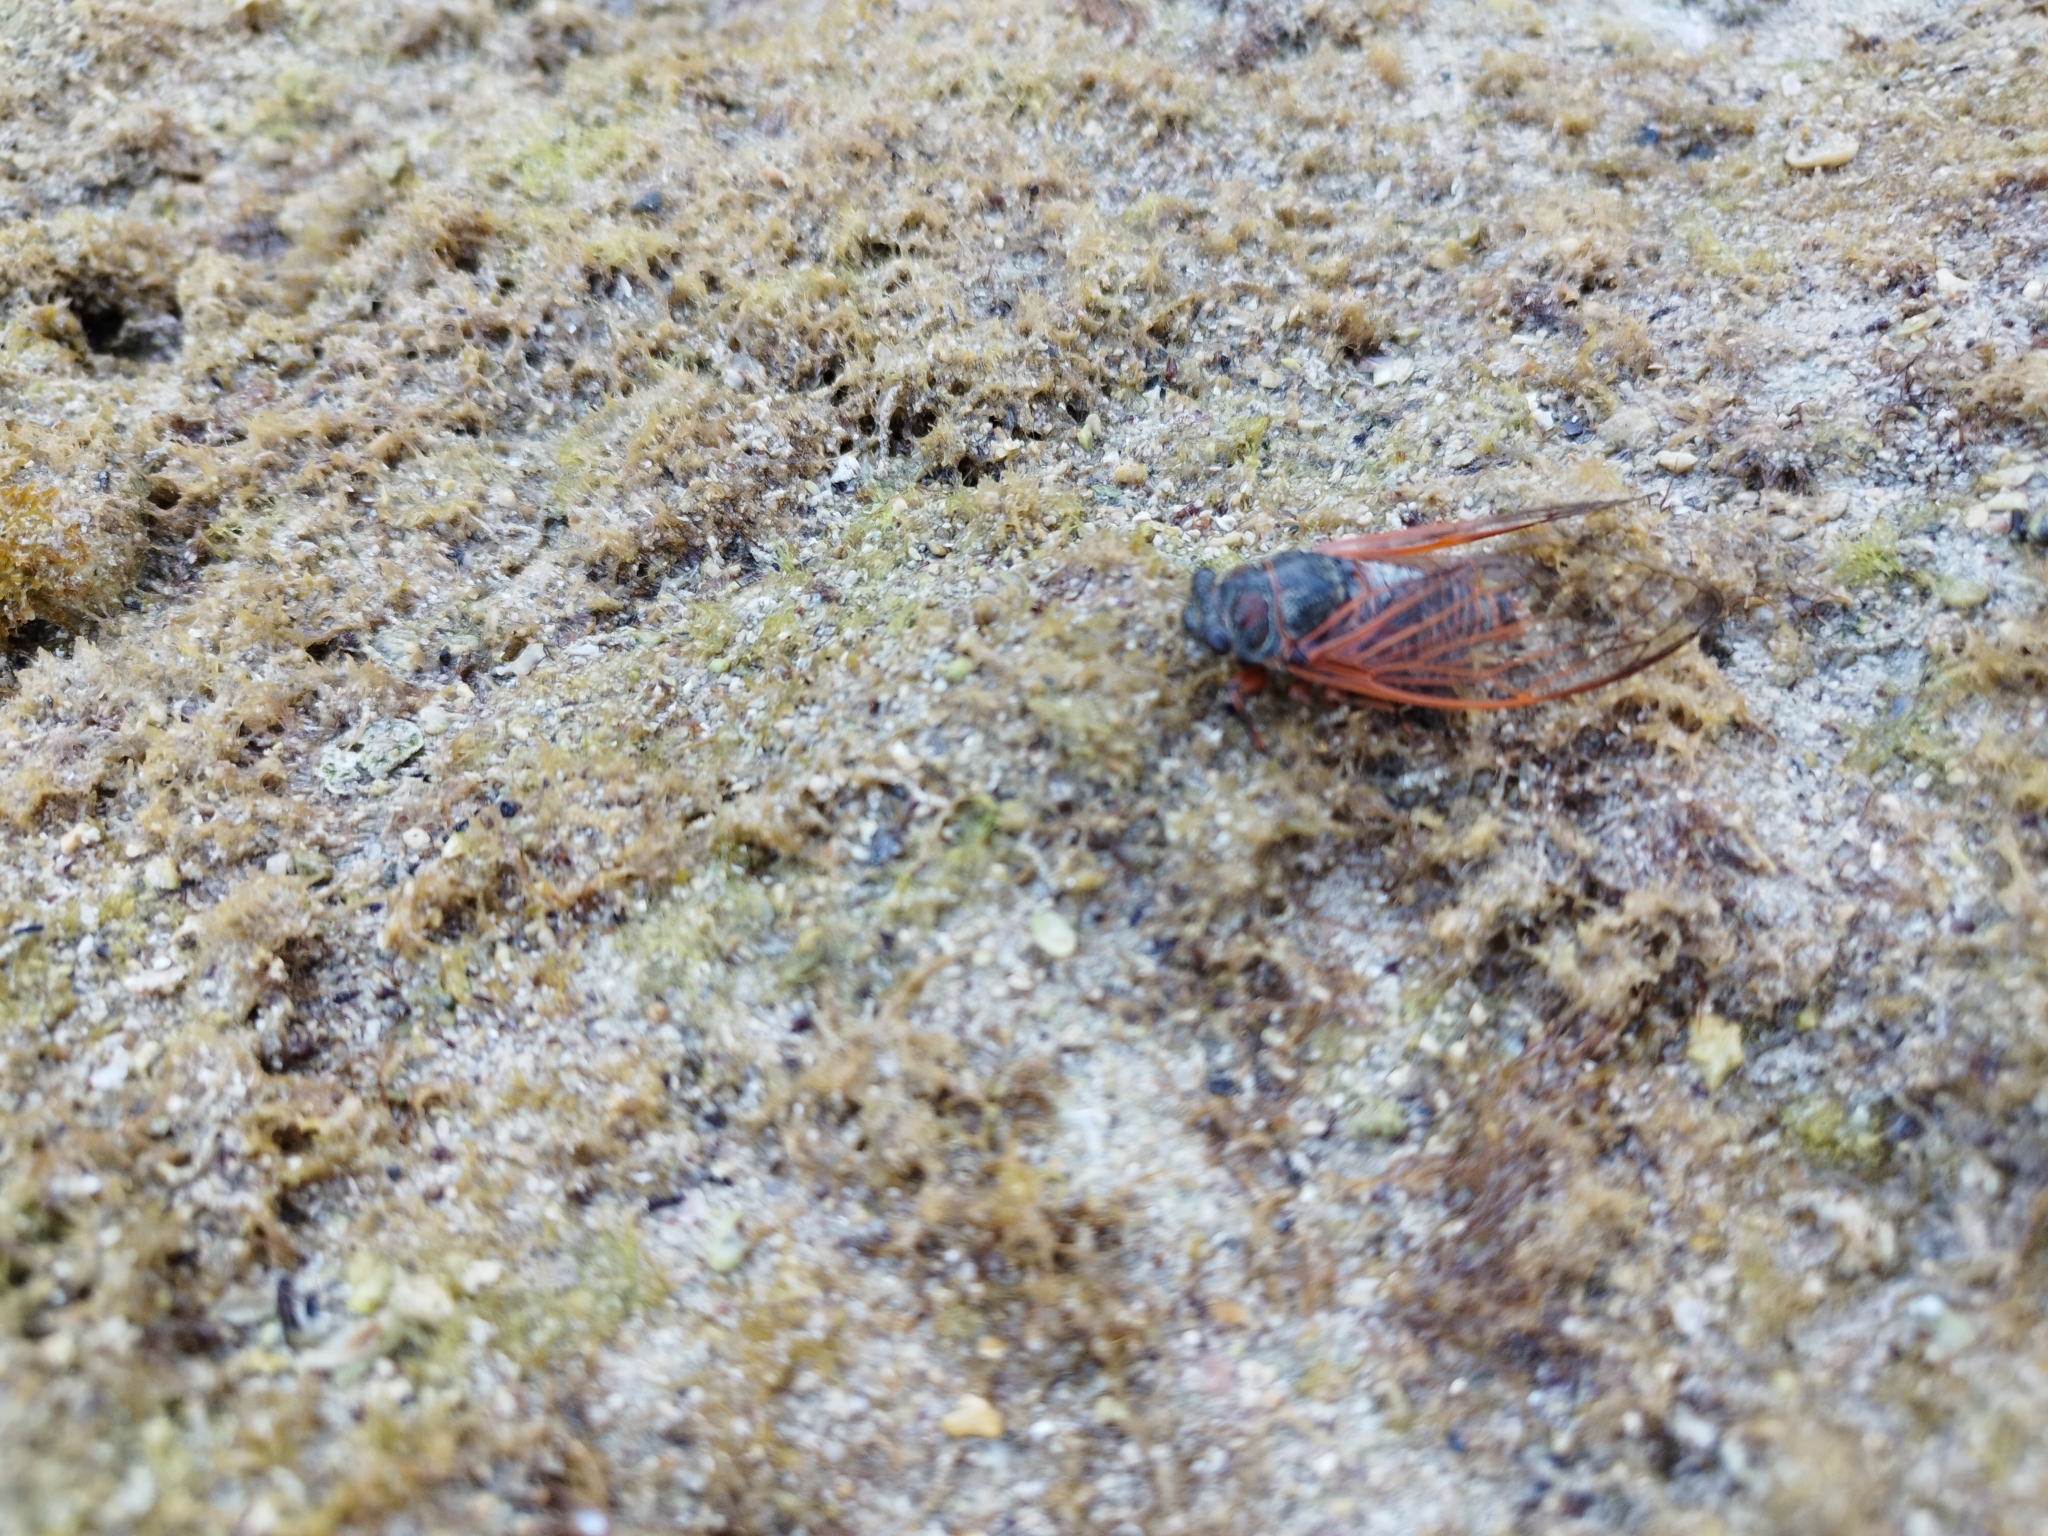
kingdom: Animalia
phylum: Arthropoda
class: Insecta
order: Hemiptera
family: Cicadidae
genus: Tibicina
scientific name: Tibicina haematodes
